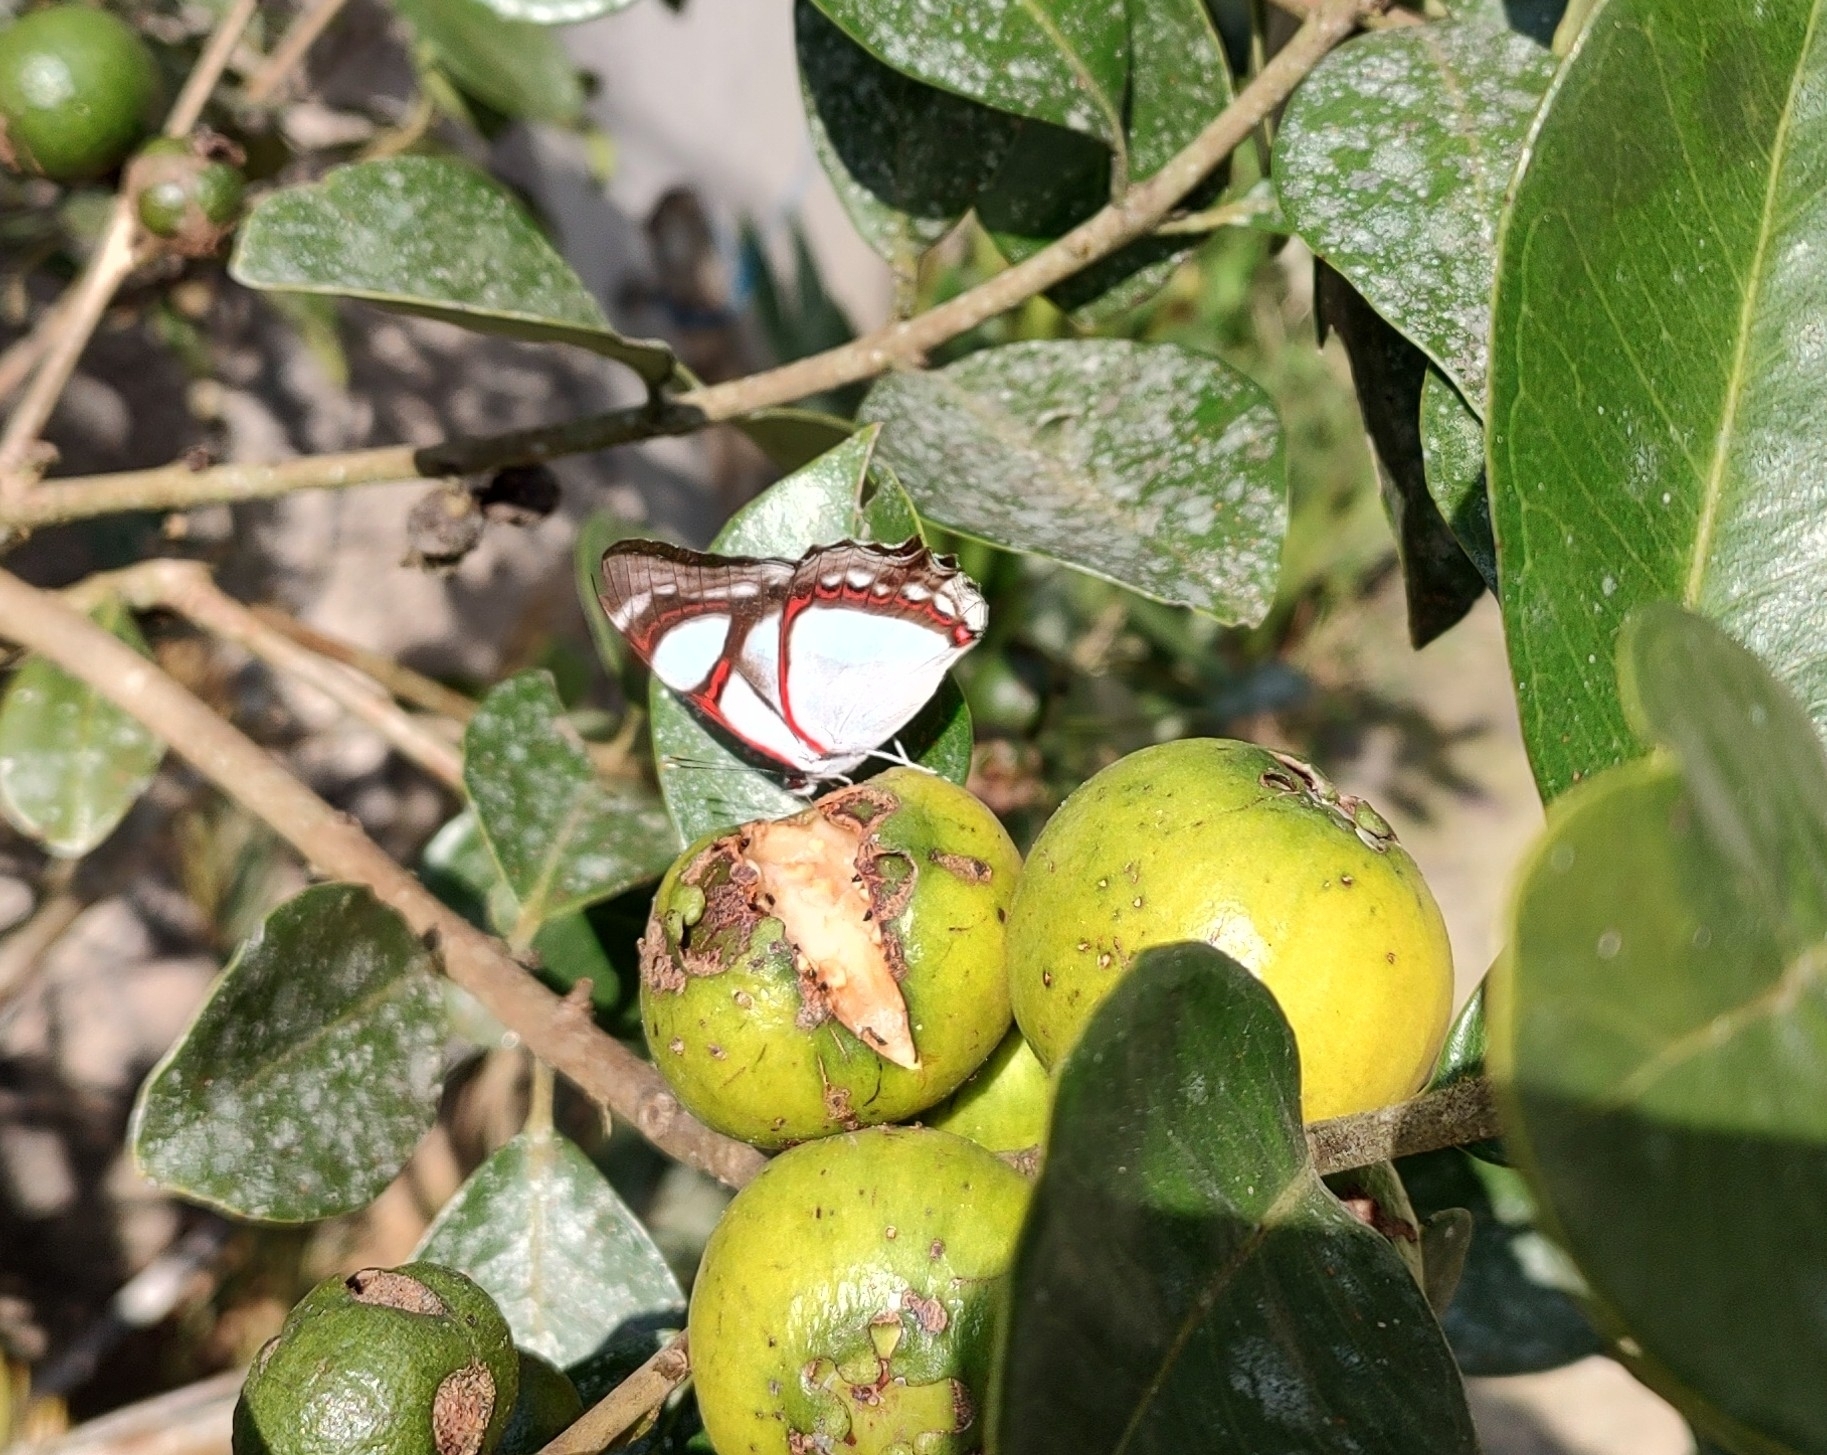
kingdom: Animalia
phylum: Arthropoda
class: Insecta
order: Lepidoptera
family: Nymphalidae
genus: Pyrrhogyra
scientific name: Pyrrhogyra neaerea
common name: Leading red-ring
